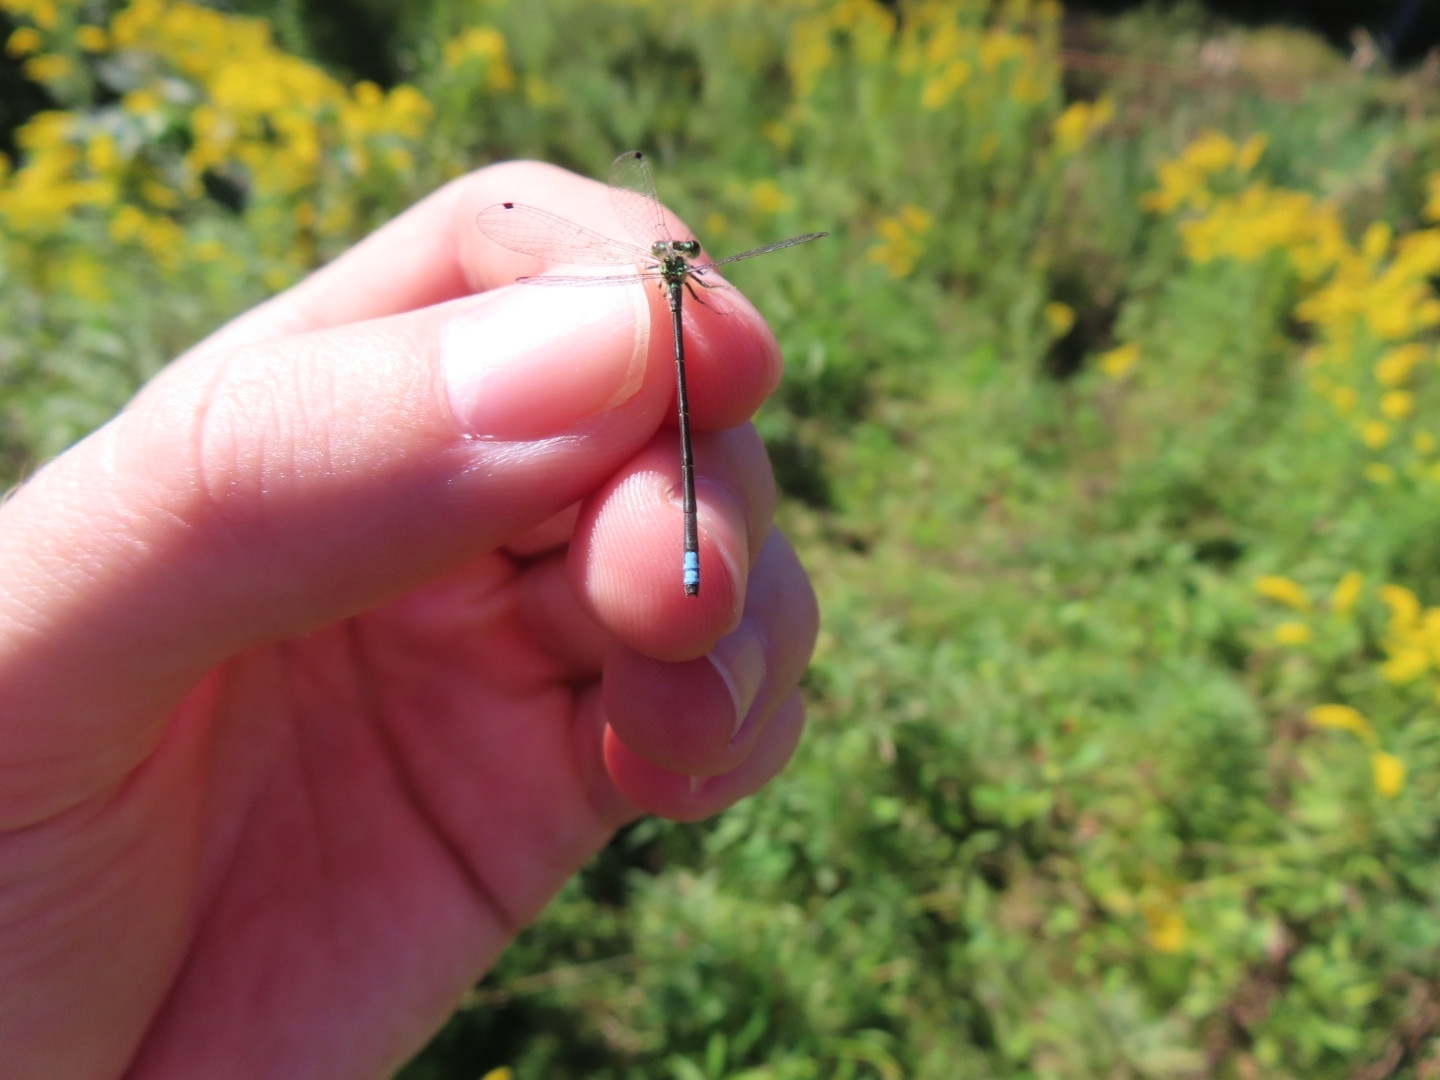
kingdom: Animalia
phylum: Arthropoda
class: Insecta
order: Odonata
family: Coenagrionidae
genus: Ischnura
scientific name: Ischnura verticalis
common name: Eastern forktail
